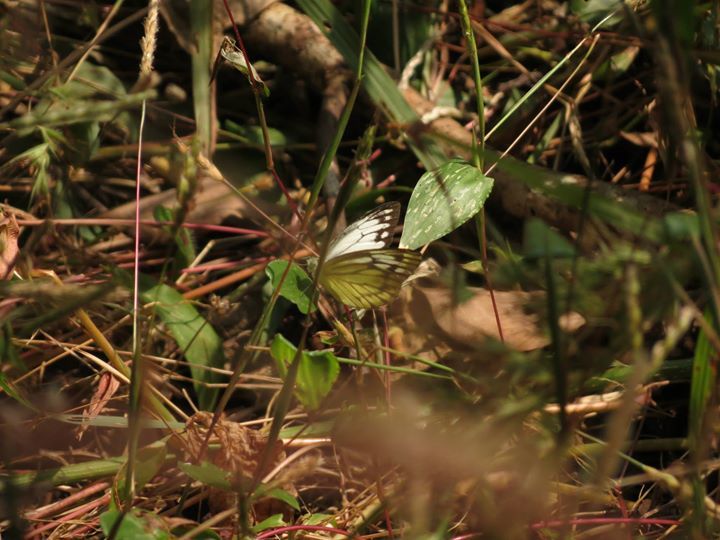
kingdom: Animalia
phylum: Arthropoda
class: Insecta
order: Lepidoptera
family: Pieridae
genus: Cepora
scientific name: Cepora nerissa
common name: Common gull
